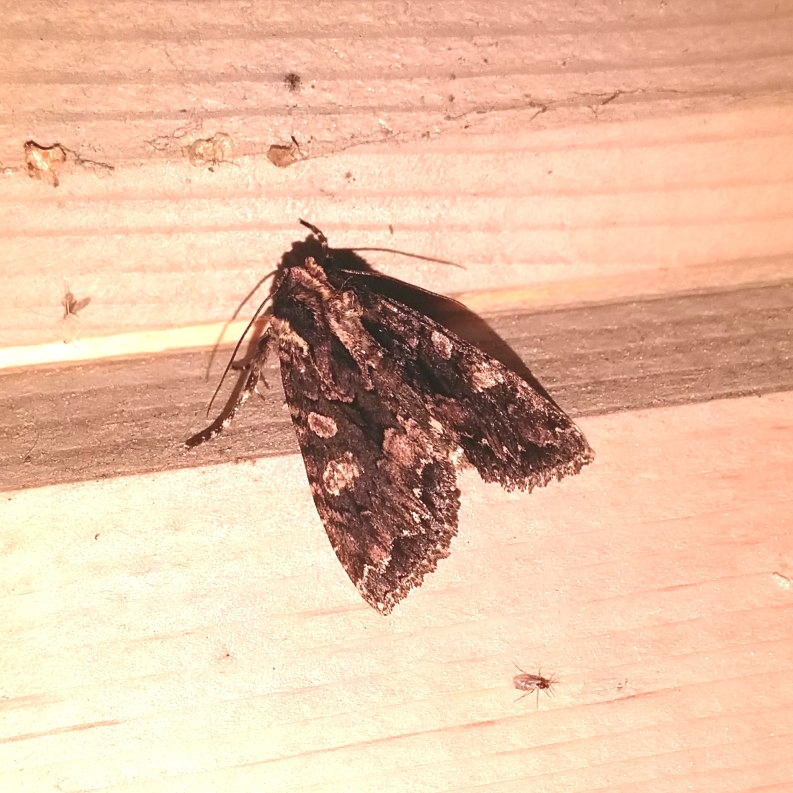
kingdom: Animalia
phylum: Arthropoda
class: Insecta
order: Lepidoptera
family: Noctuidae
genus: Mniotype
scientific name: Mniotype satura
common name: Beautiful arches
